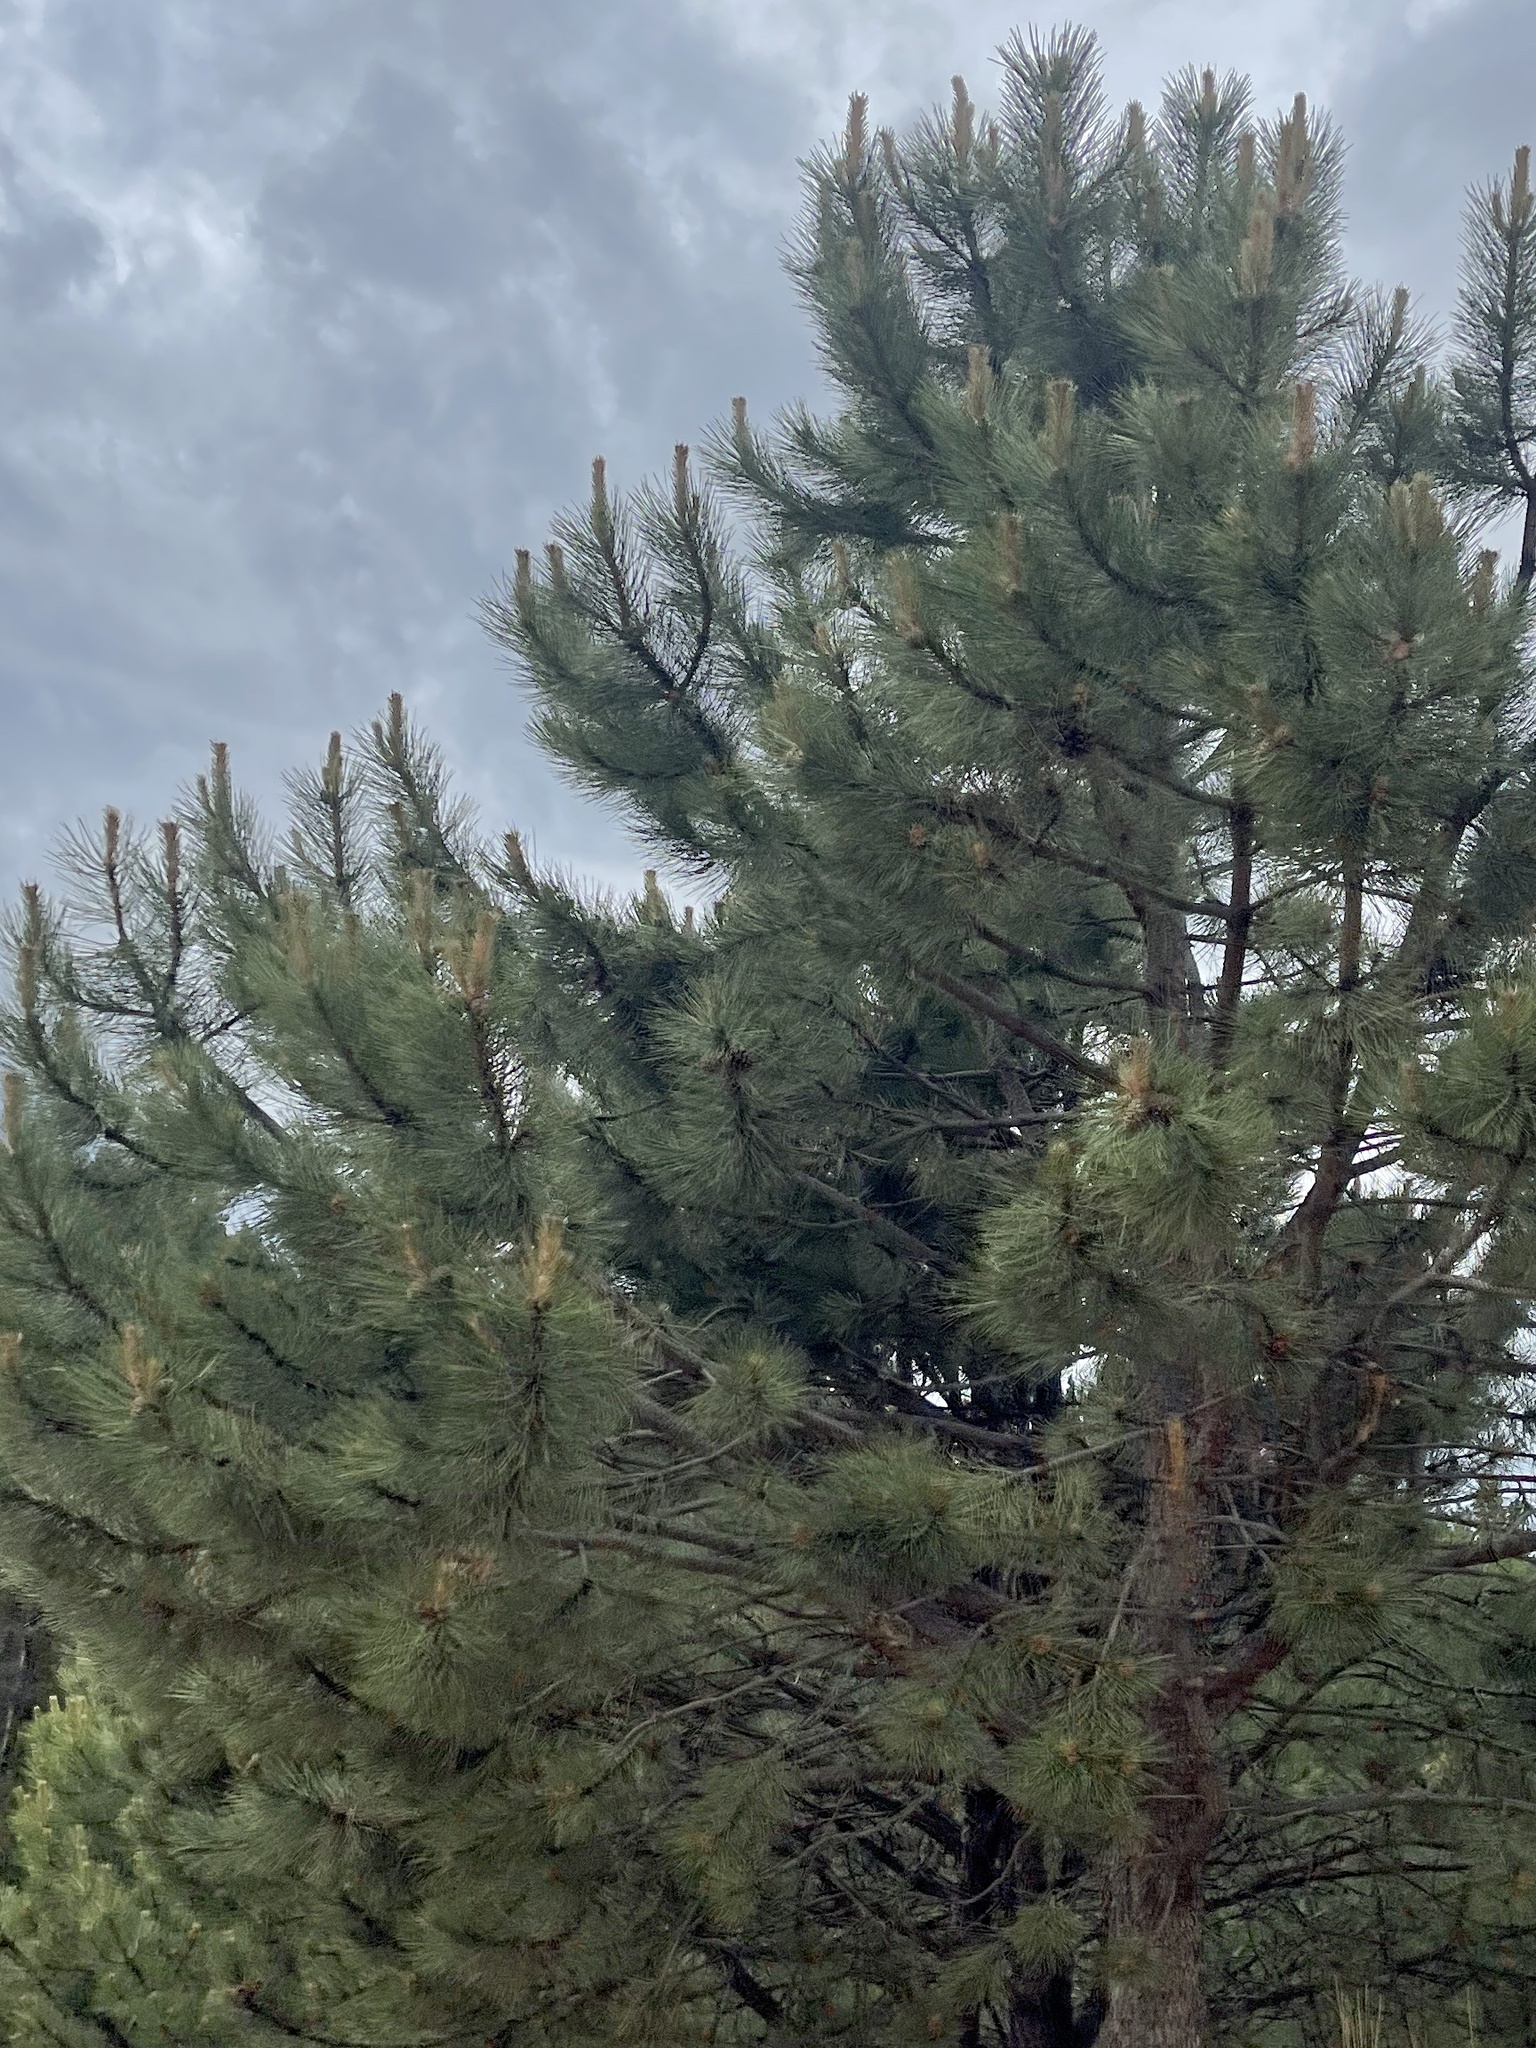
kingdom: Plantae
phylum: Tracheophyta
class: Pinopsida
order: Pinales
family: Pinaceae
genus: Pinus
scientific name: Pinus ponderosa
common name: Western yellow-pine
